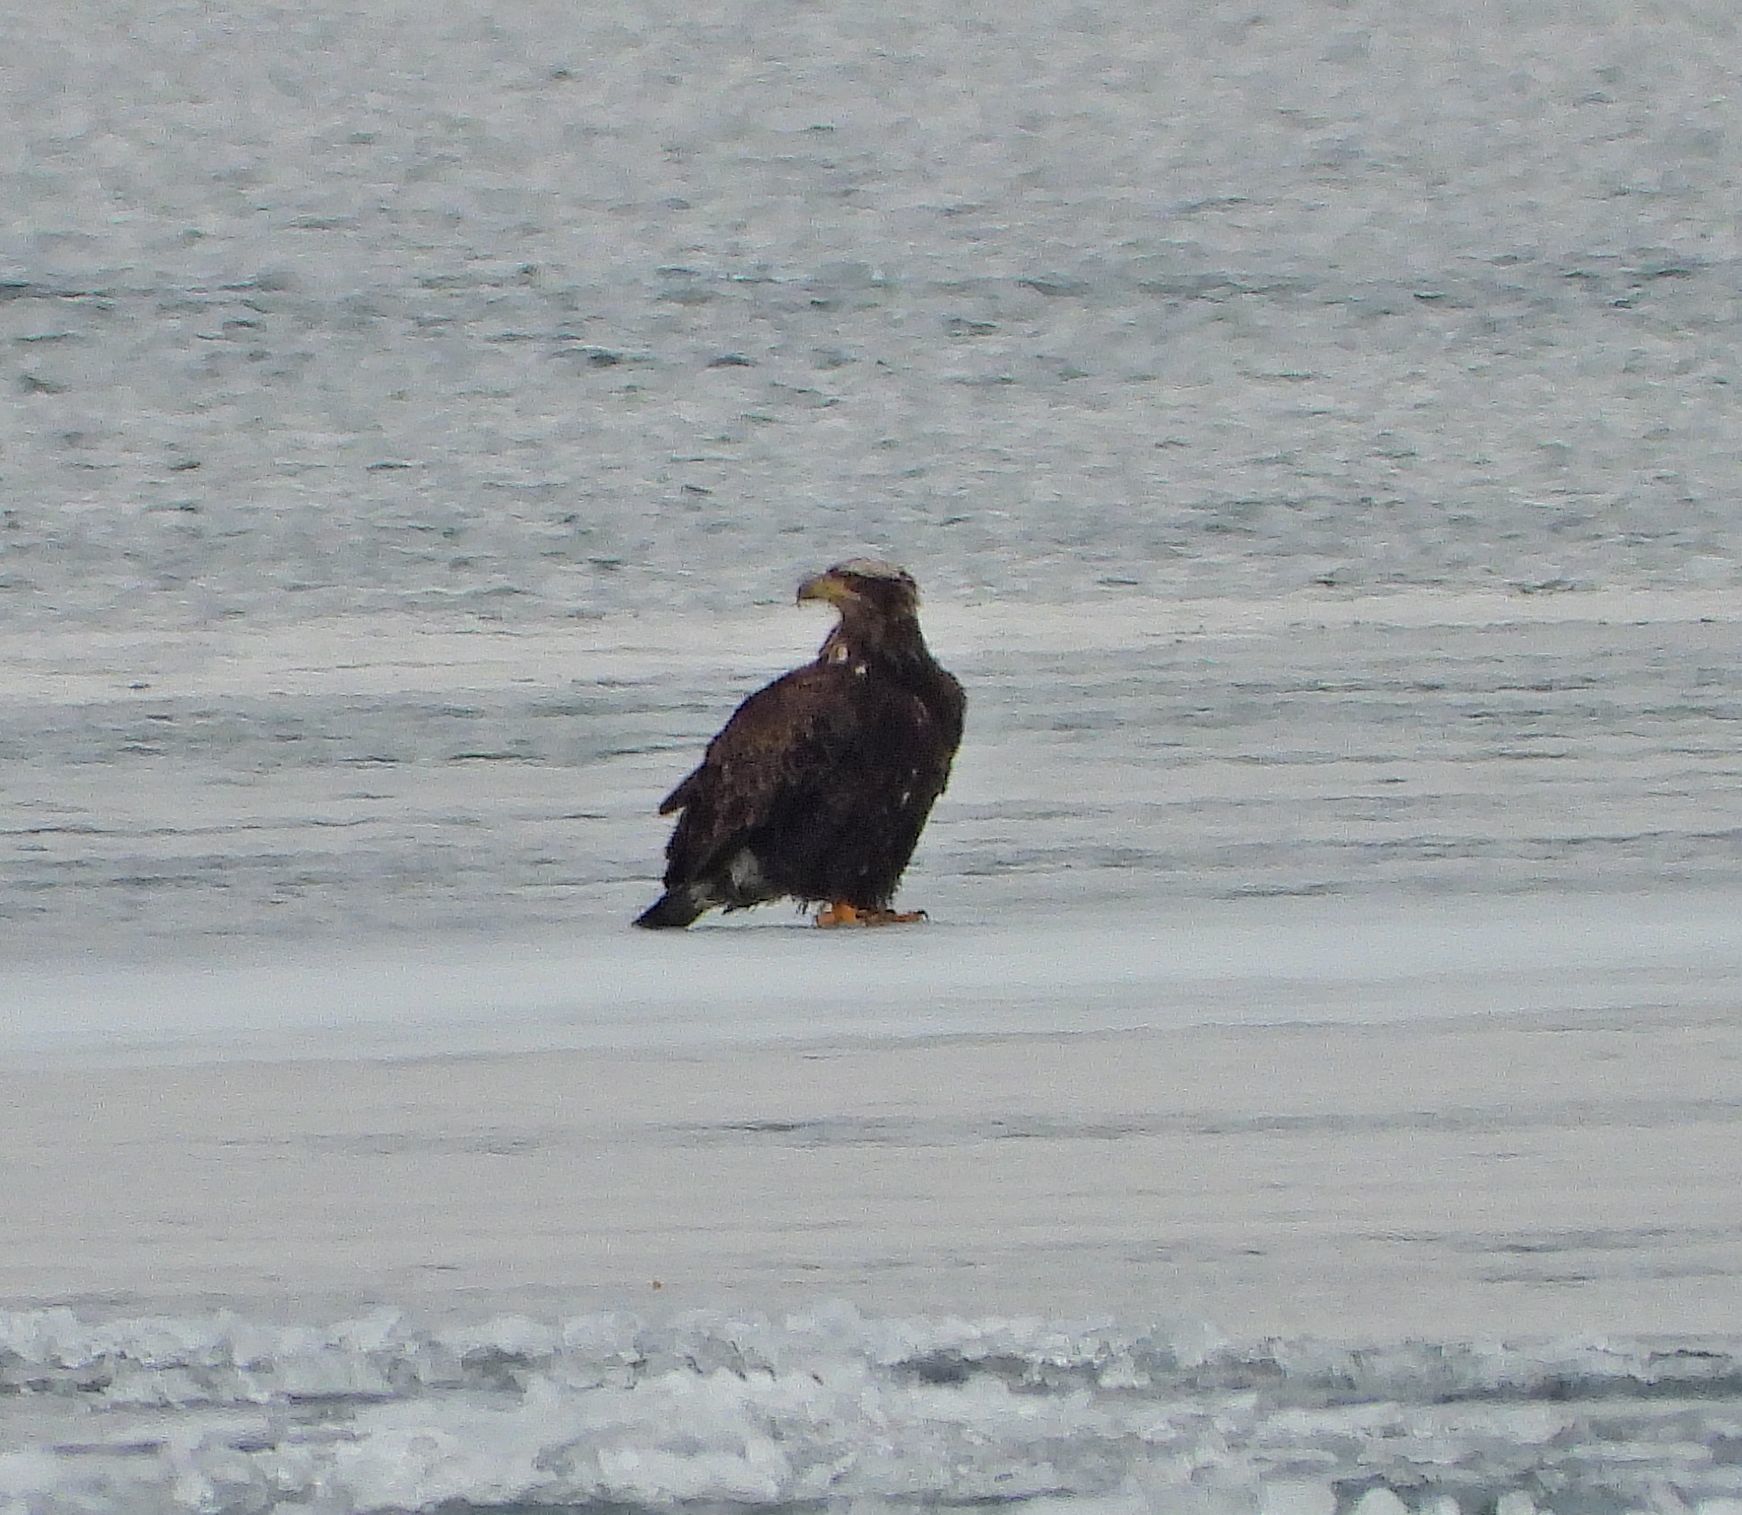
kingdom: Animalia
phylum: Chordata
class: Aves
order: Accipitriformes
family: Accipitridae
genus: Haliaeetus
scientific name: Haliaeetus leucocephalus
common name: Bald eagle
